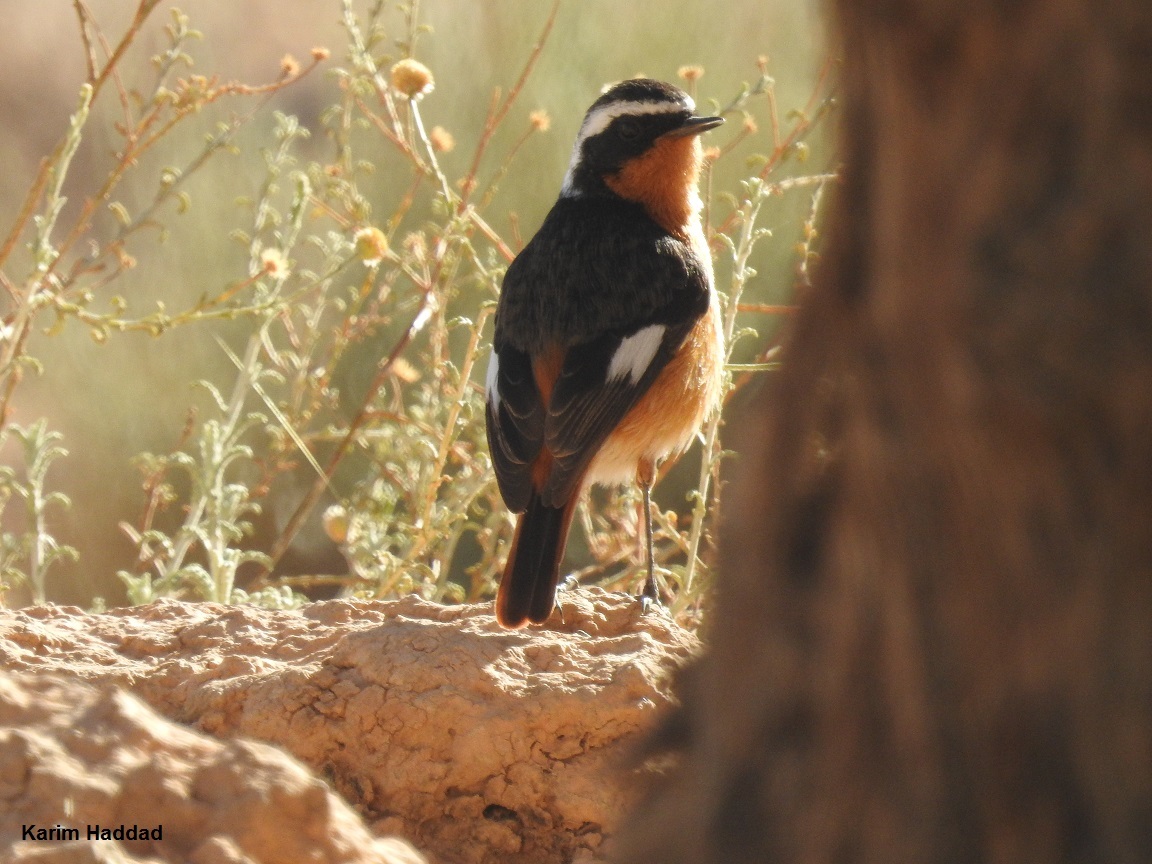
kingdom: Animalia
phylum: Chordata
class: Aves
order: Passeriformes
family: Muscicapidae
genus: Phoenicurus
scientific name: Phoenicurus moussieri
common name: Moussier's redstart
